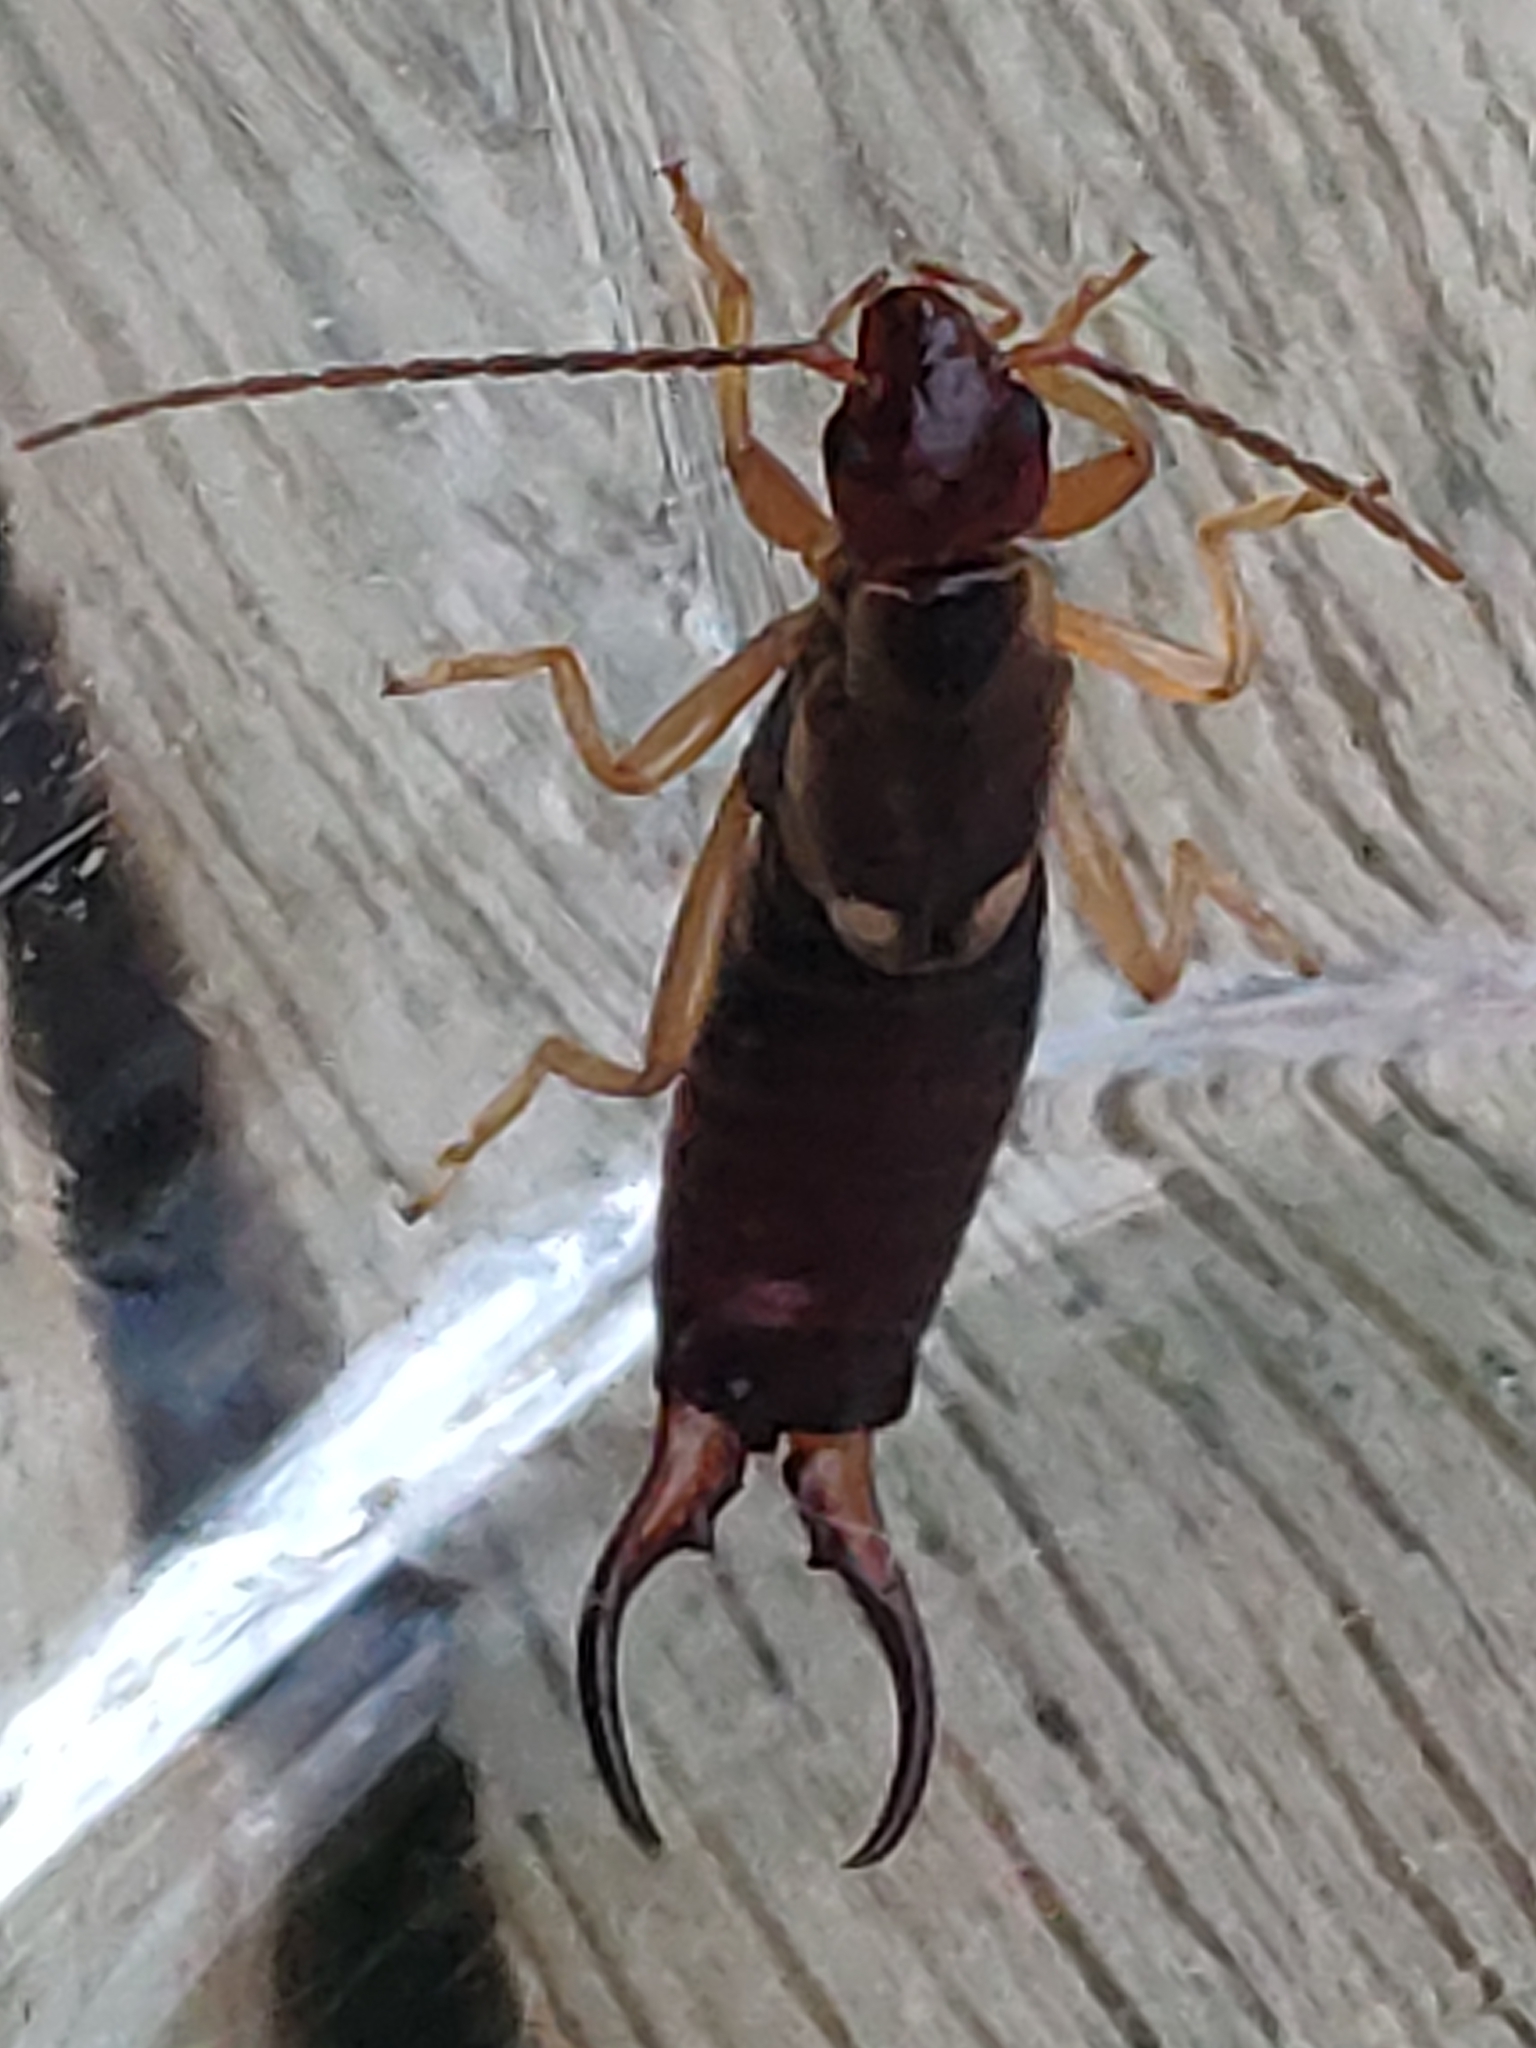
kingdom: Animalia
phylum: Arthropoda
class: Insecta
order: Dermaptera
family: Forficulidae
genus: Forficula
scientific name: Forficula
